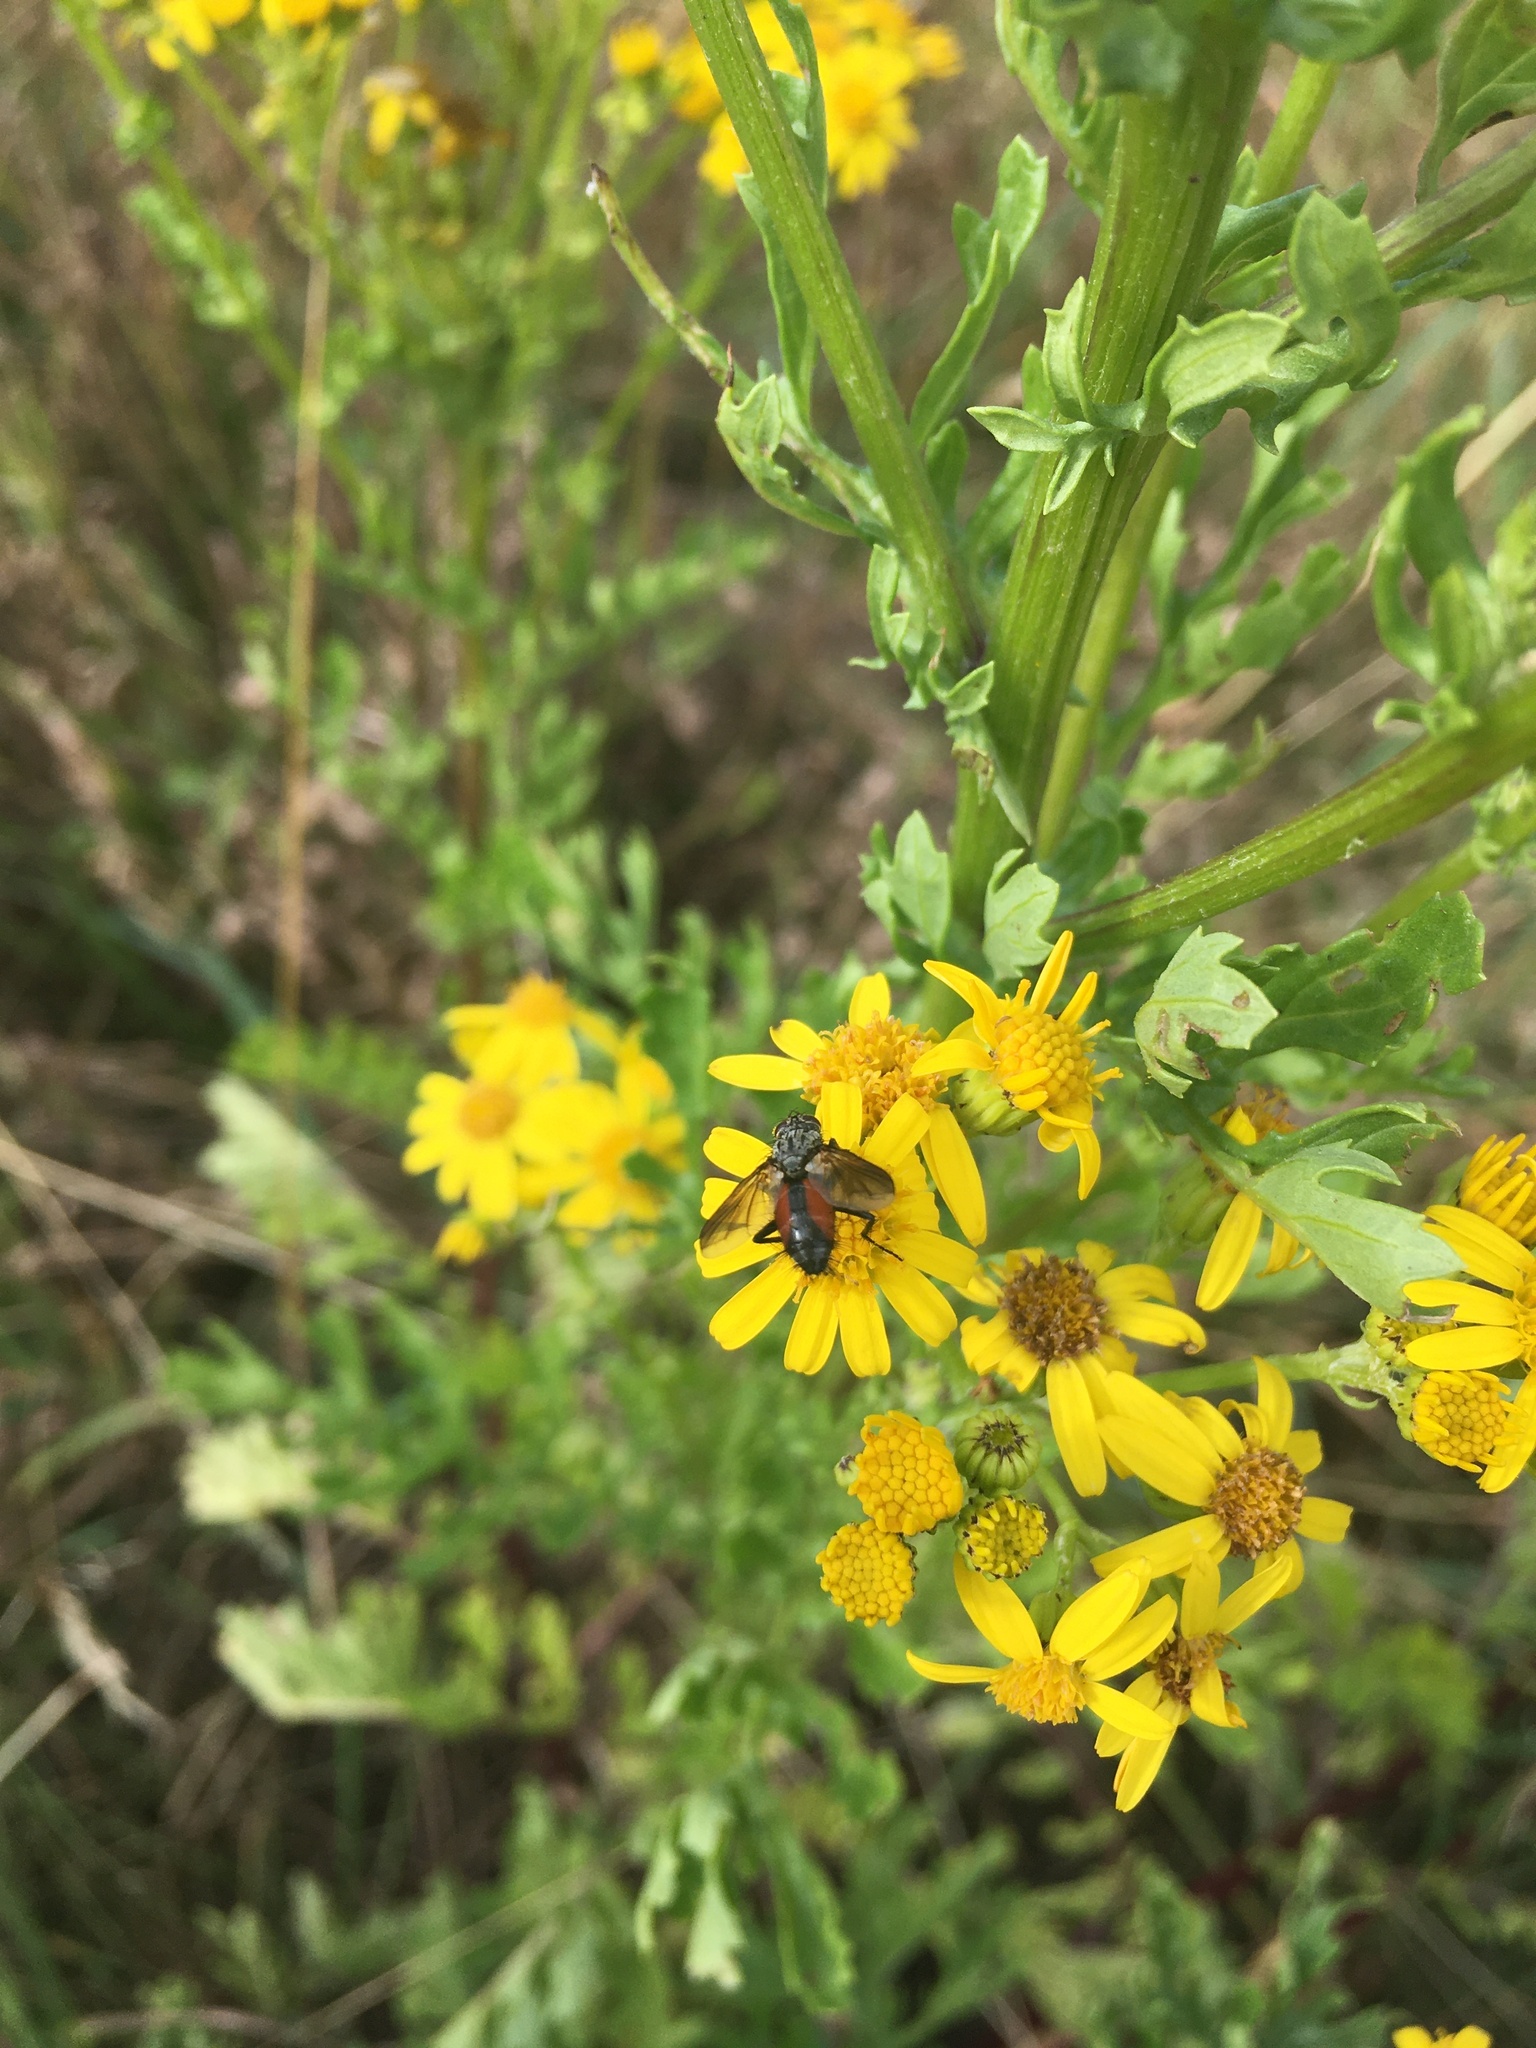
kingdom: Animalia
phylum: Arthropoda
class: Insecta
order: Diptera
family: Tachinidae
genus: Eriothrix
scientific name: Eriothrix rufomaculatus
